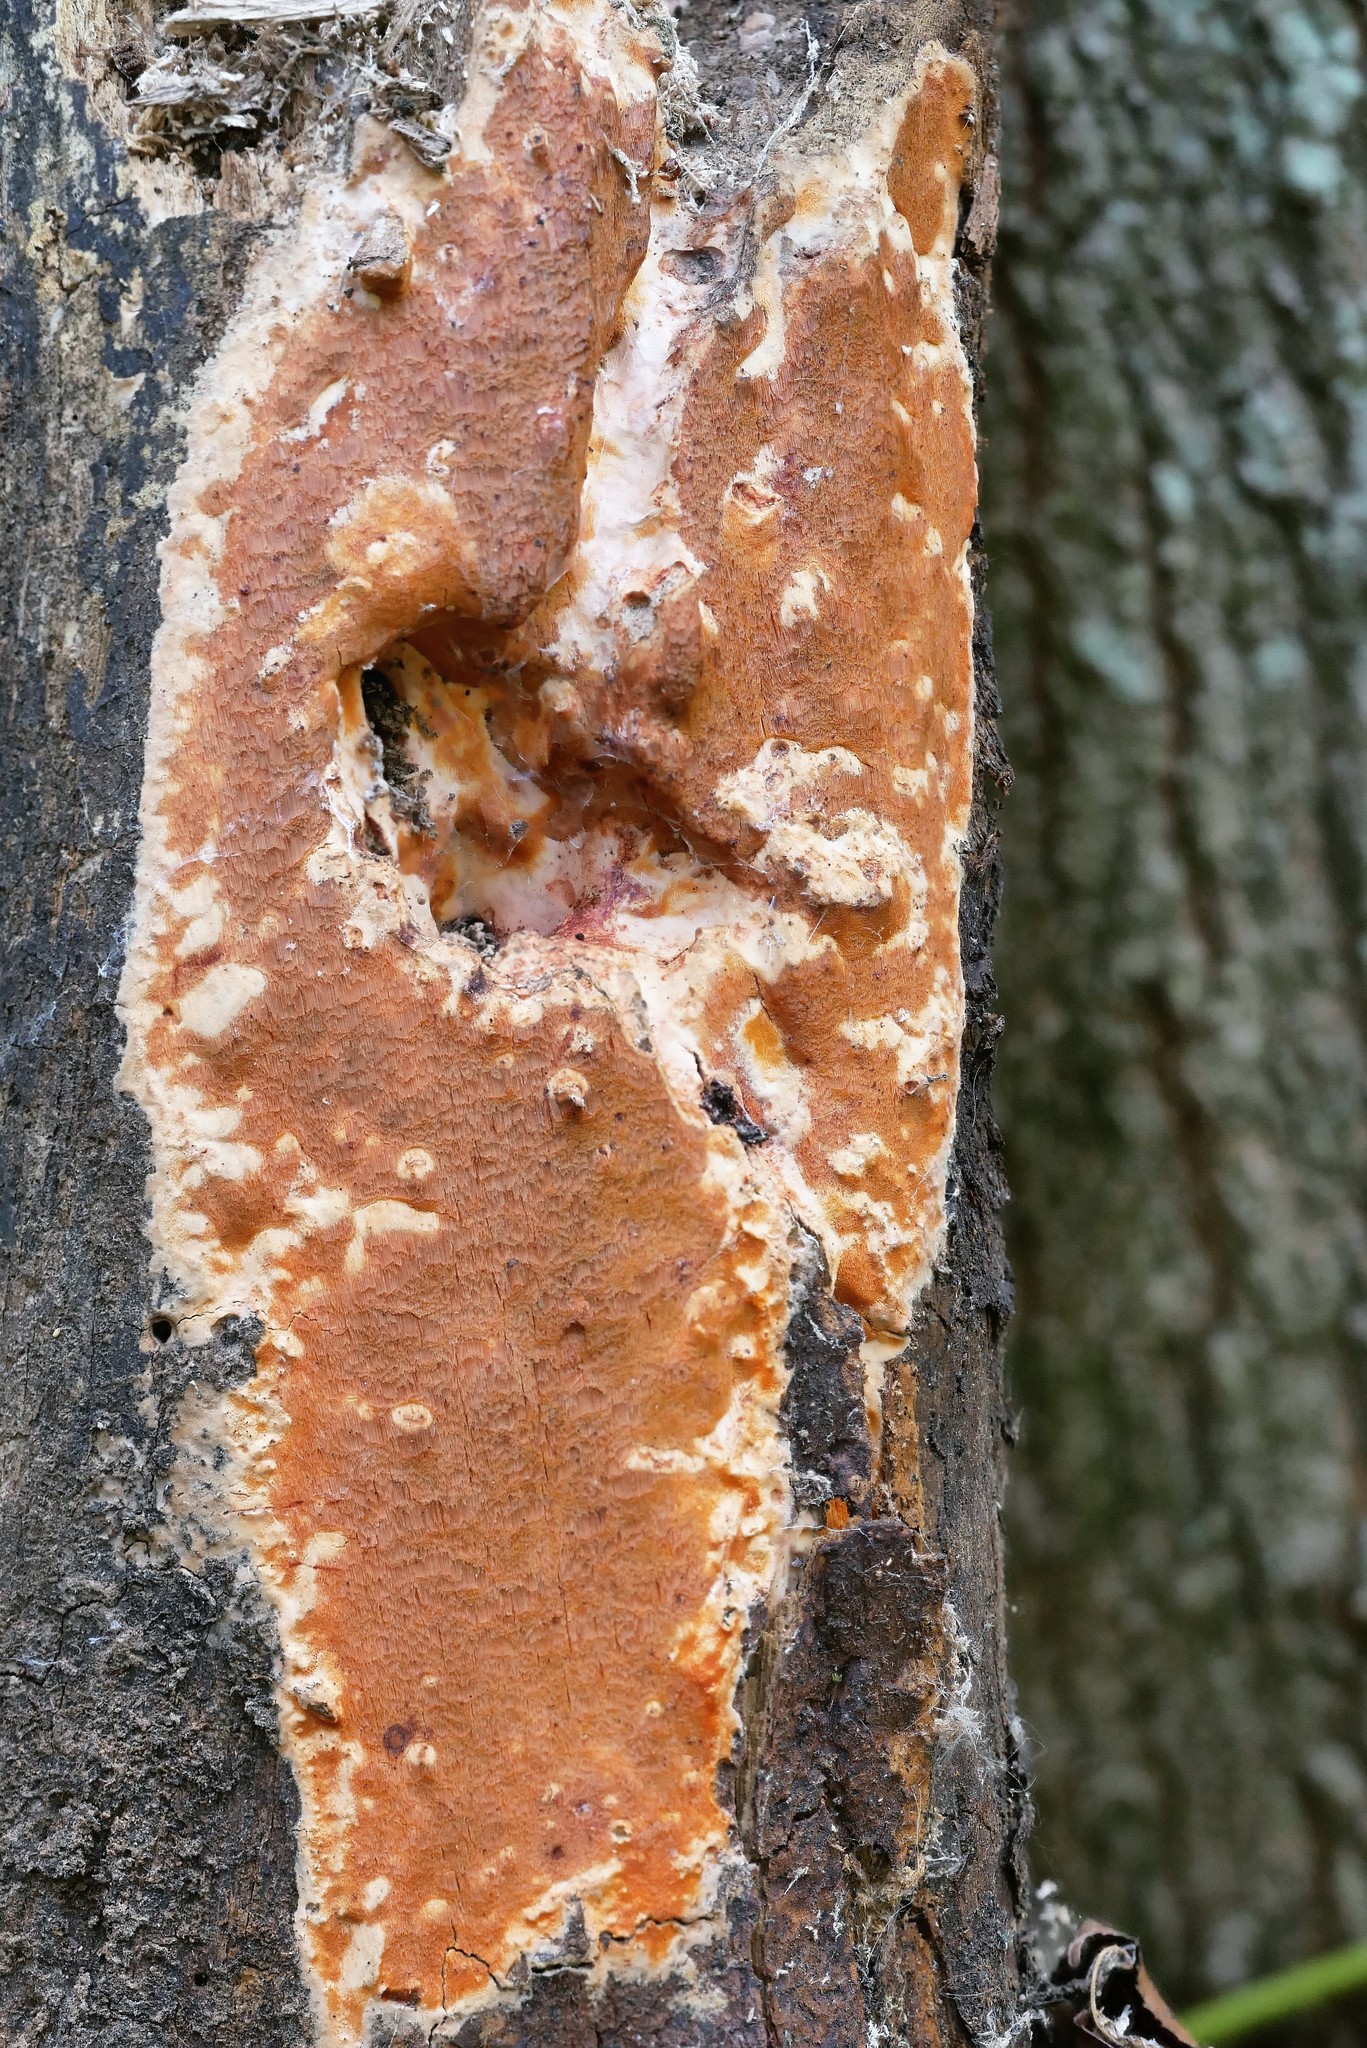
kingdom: Fungi
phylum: Basidiomycota
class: Agaricomycetes
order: Polyporales
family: Irpicaceae
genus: Ceriporia
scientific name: Ceriporia spissa
